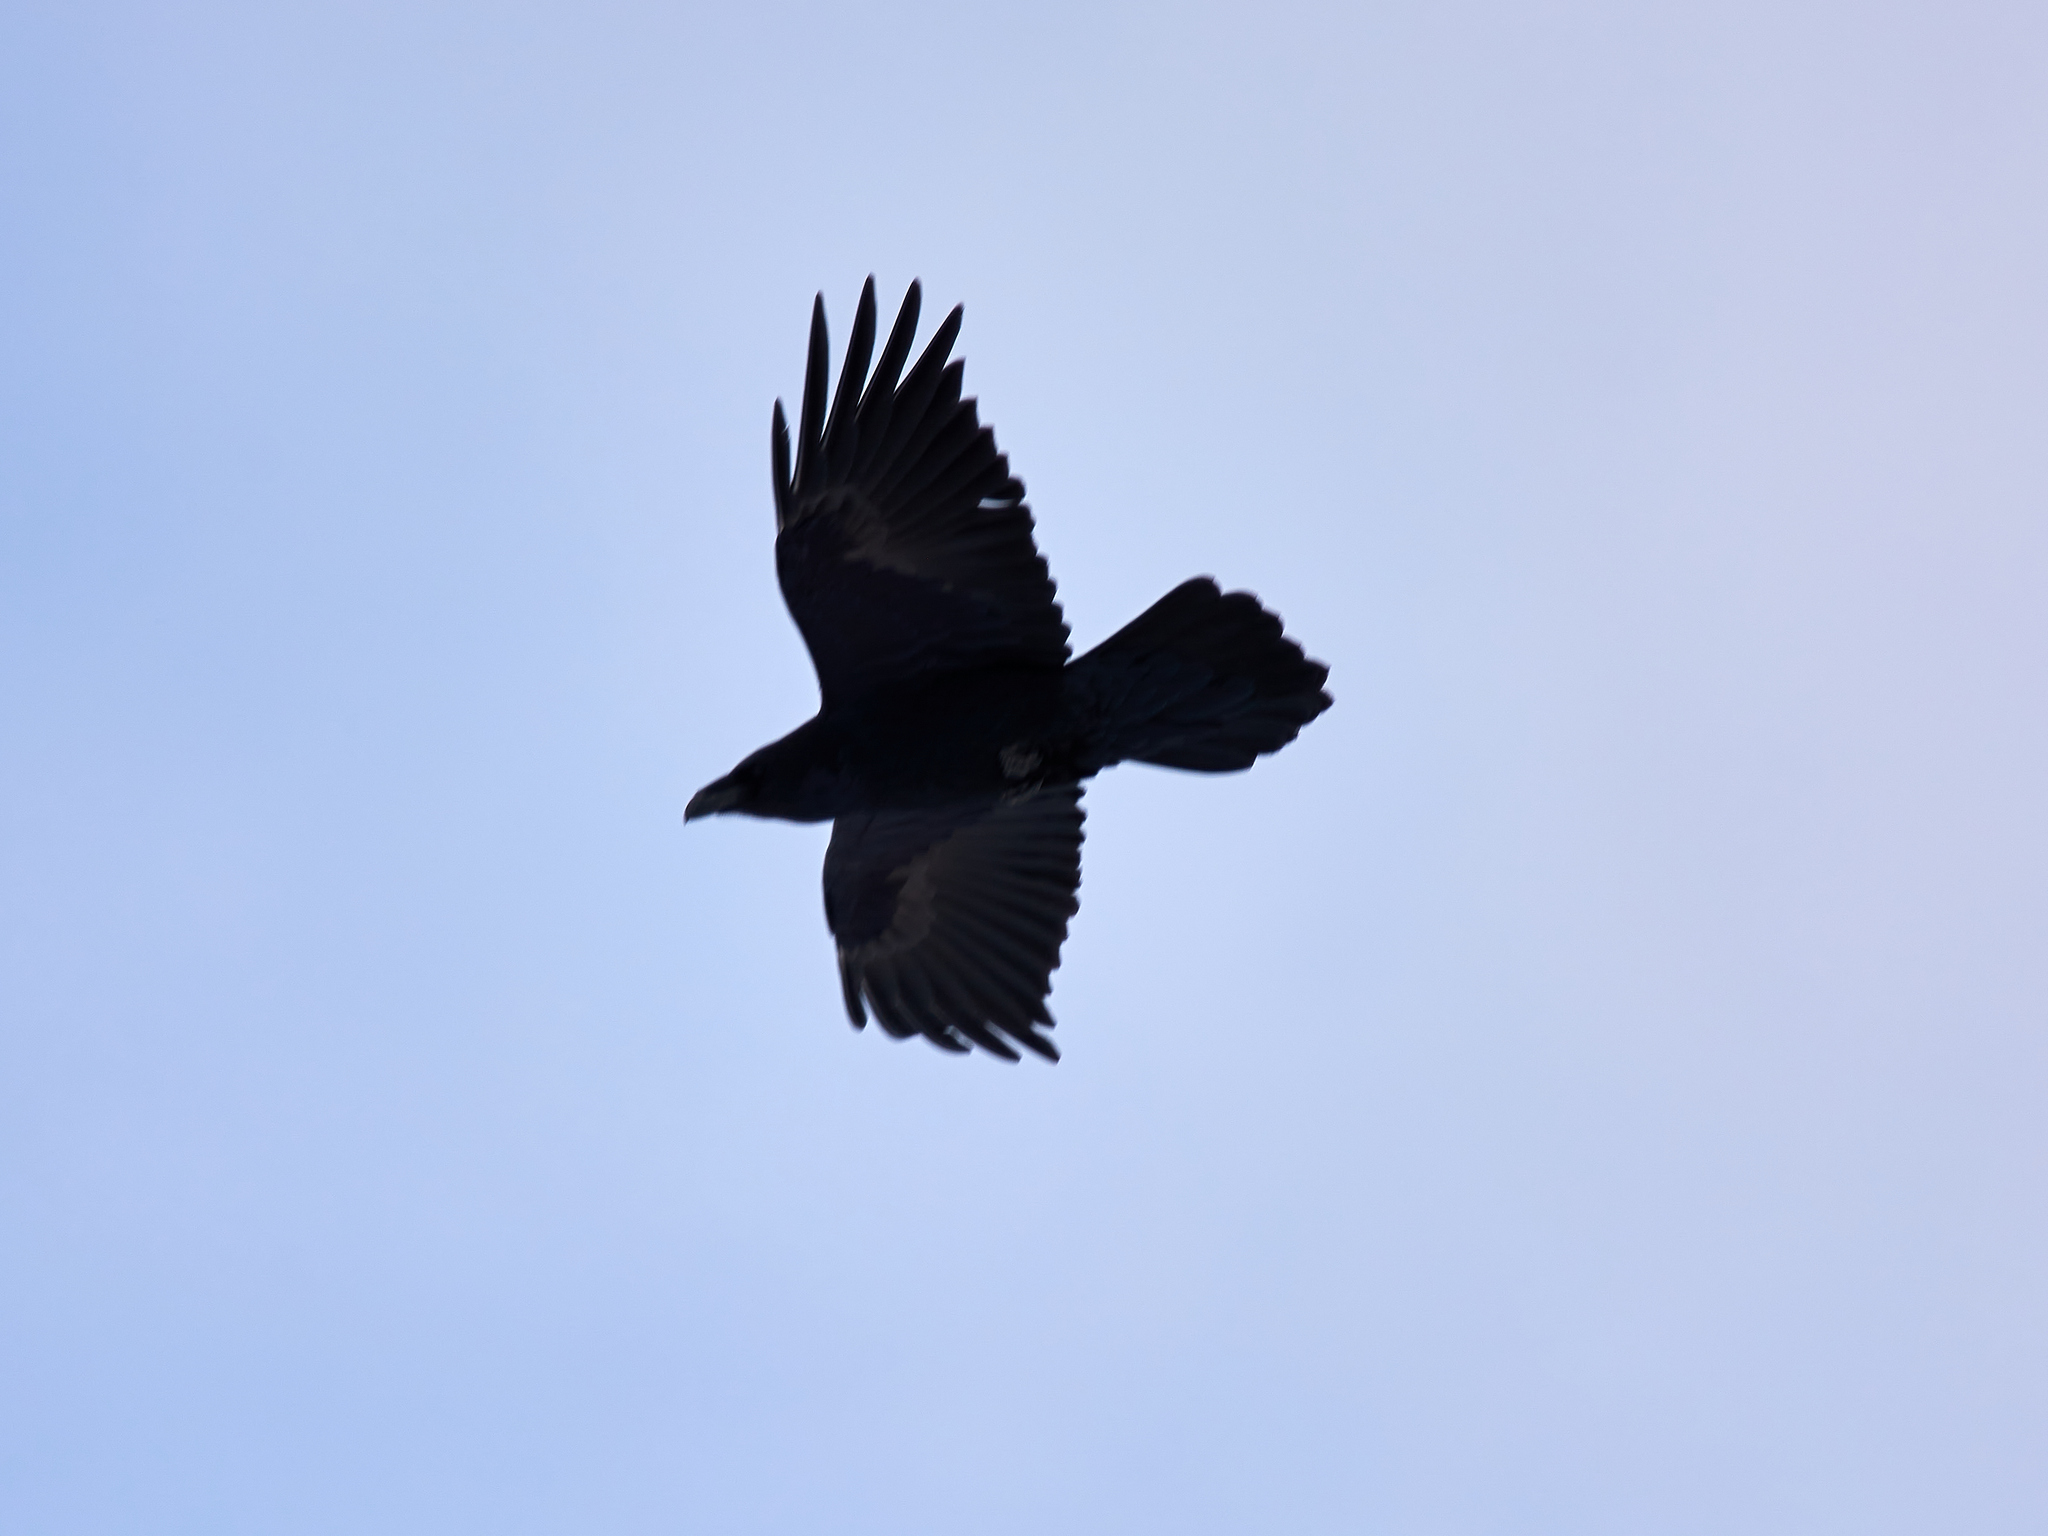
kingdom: Animalia
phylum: Chordata
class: Aves
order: Passeriformes
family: Corvidae
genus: Corvus
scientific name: Corvus corax
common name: Common raven
